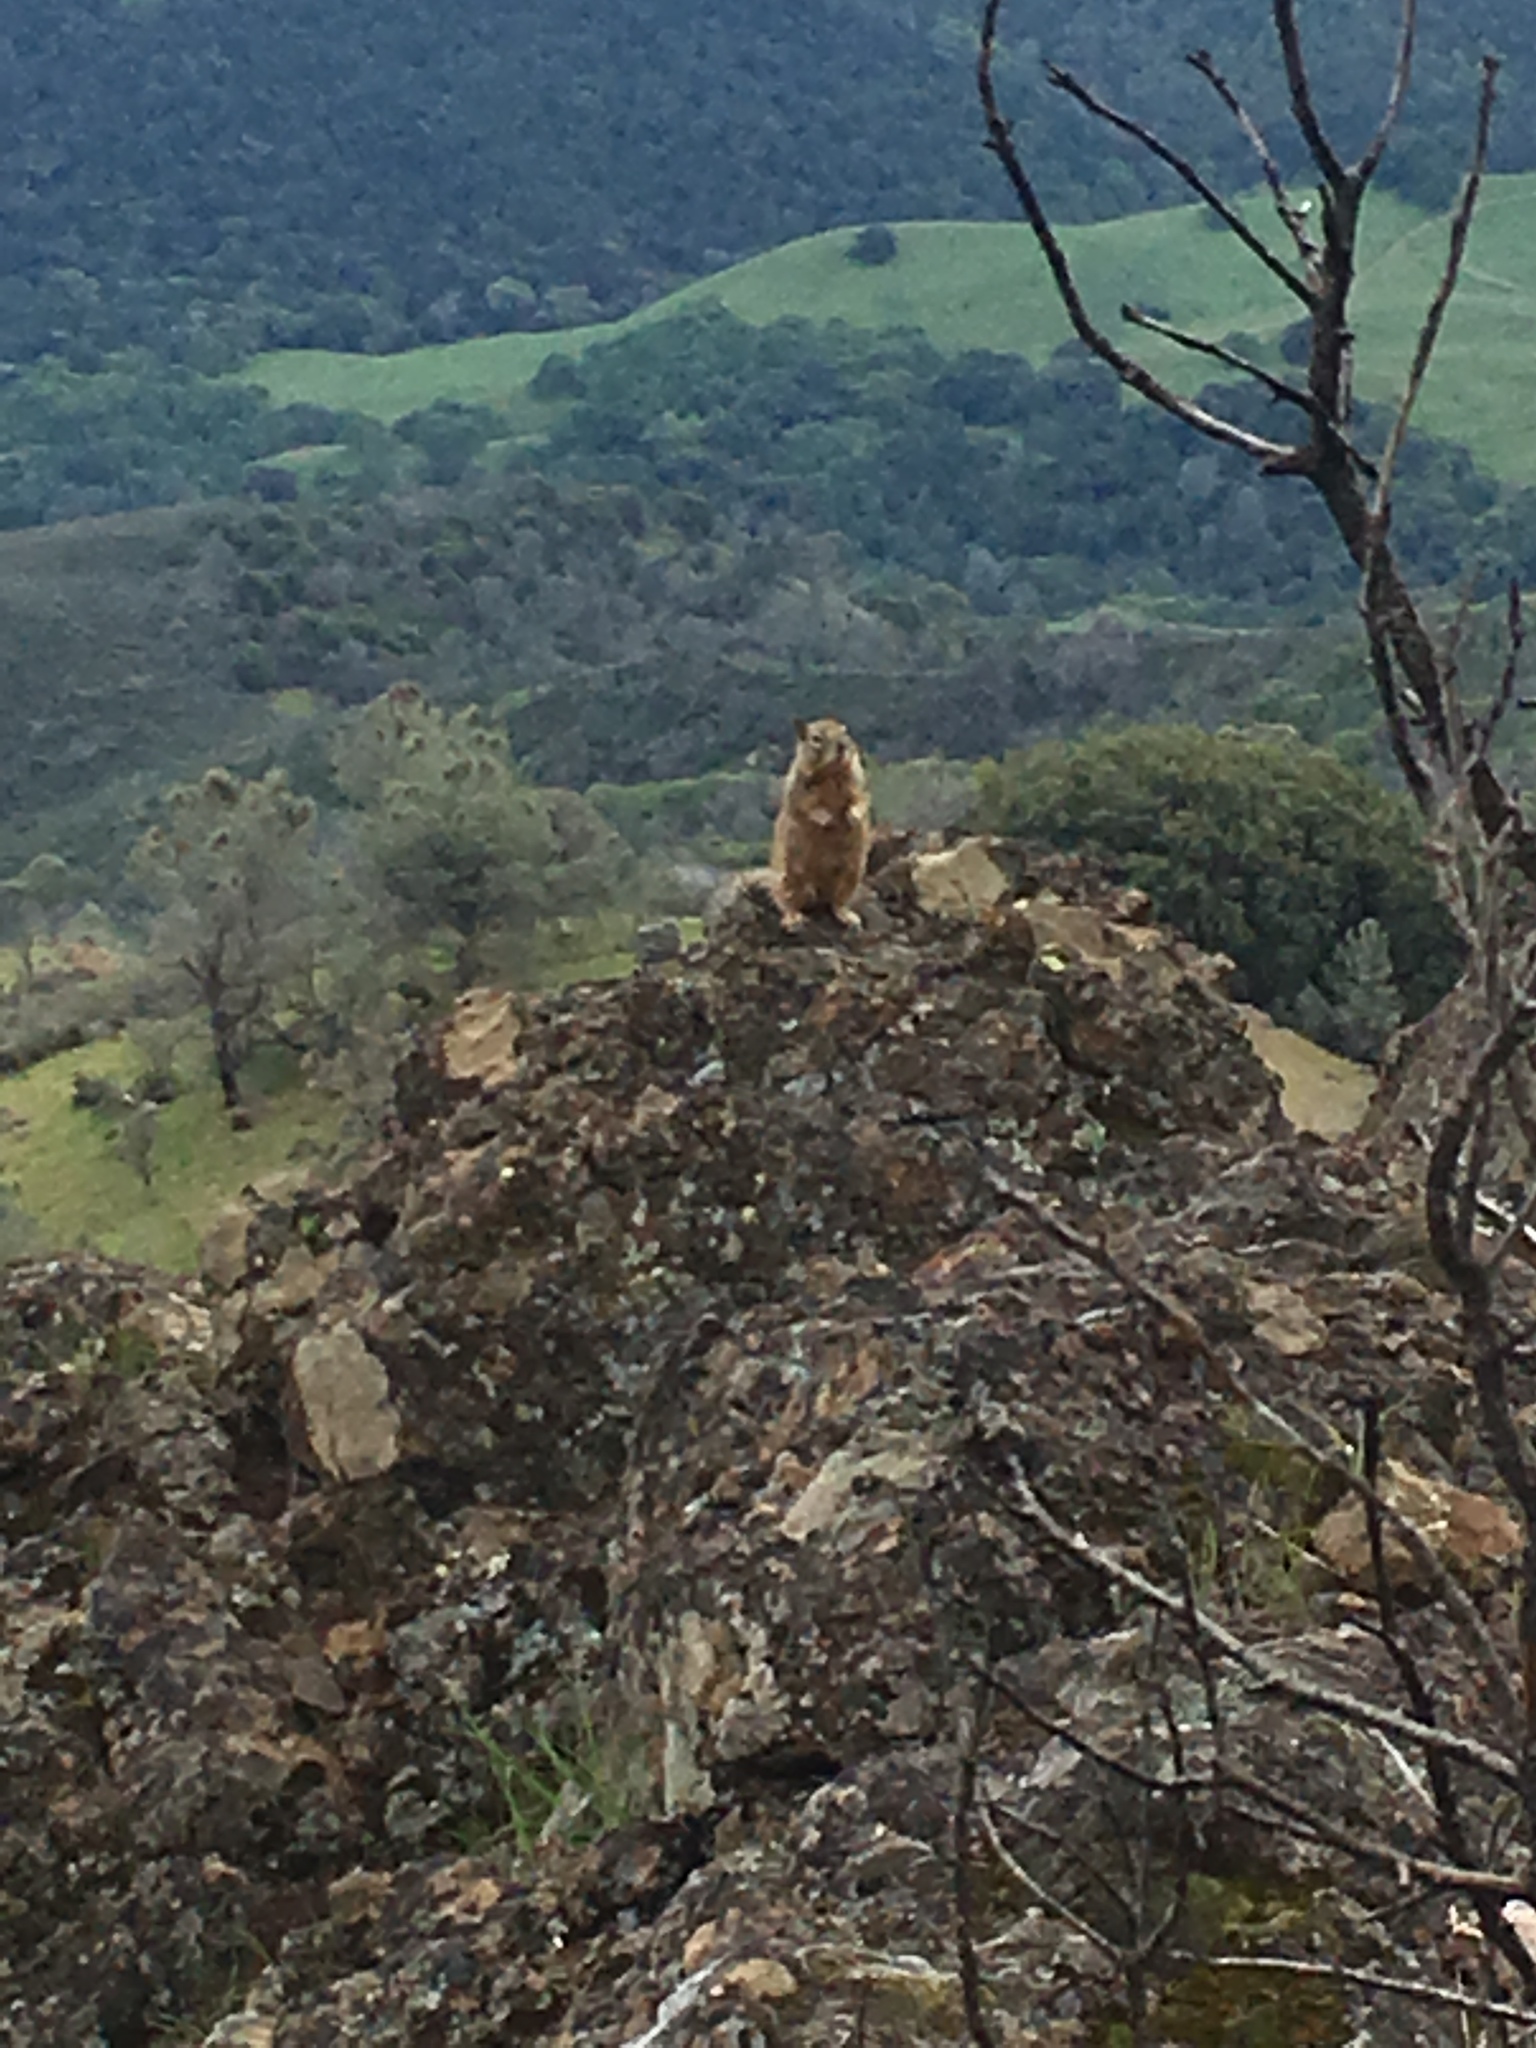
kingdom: Animalia
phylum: Chordata
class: Mammalia
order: Rodentia
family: Sciuridae
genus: Otospermophilus
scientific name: Otospermophilus beecheyi
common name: California ground squirrel
